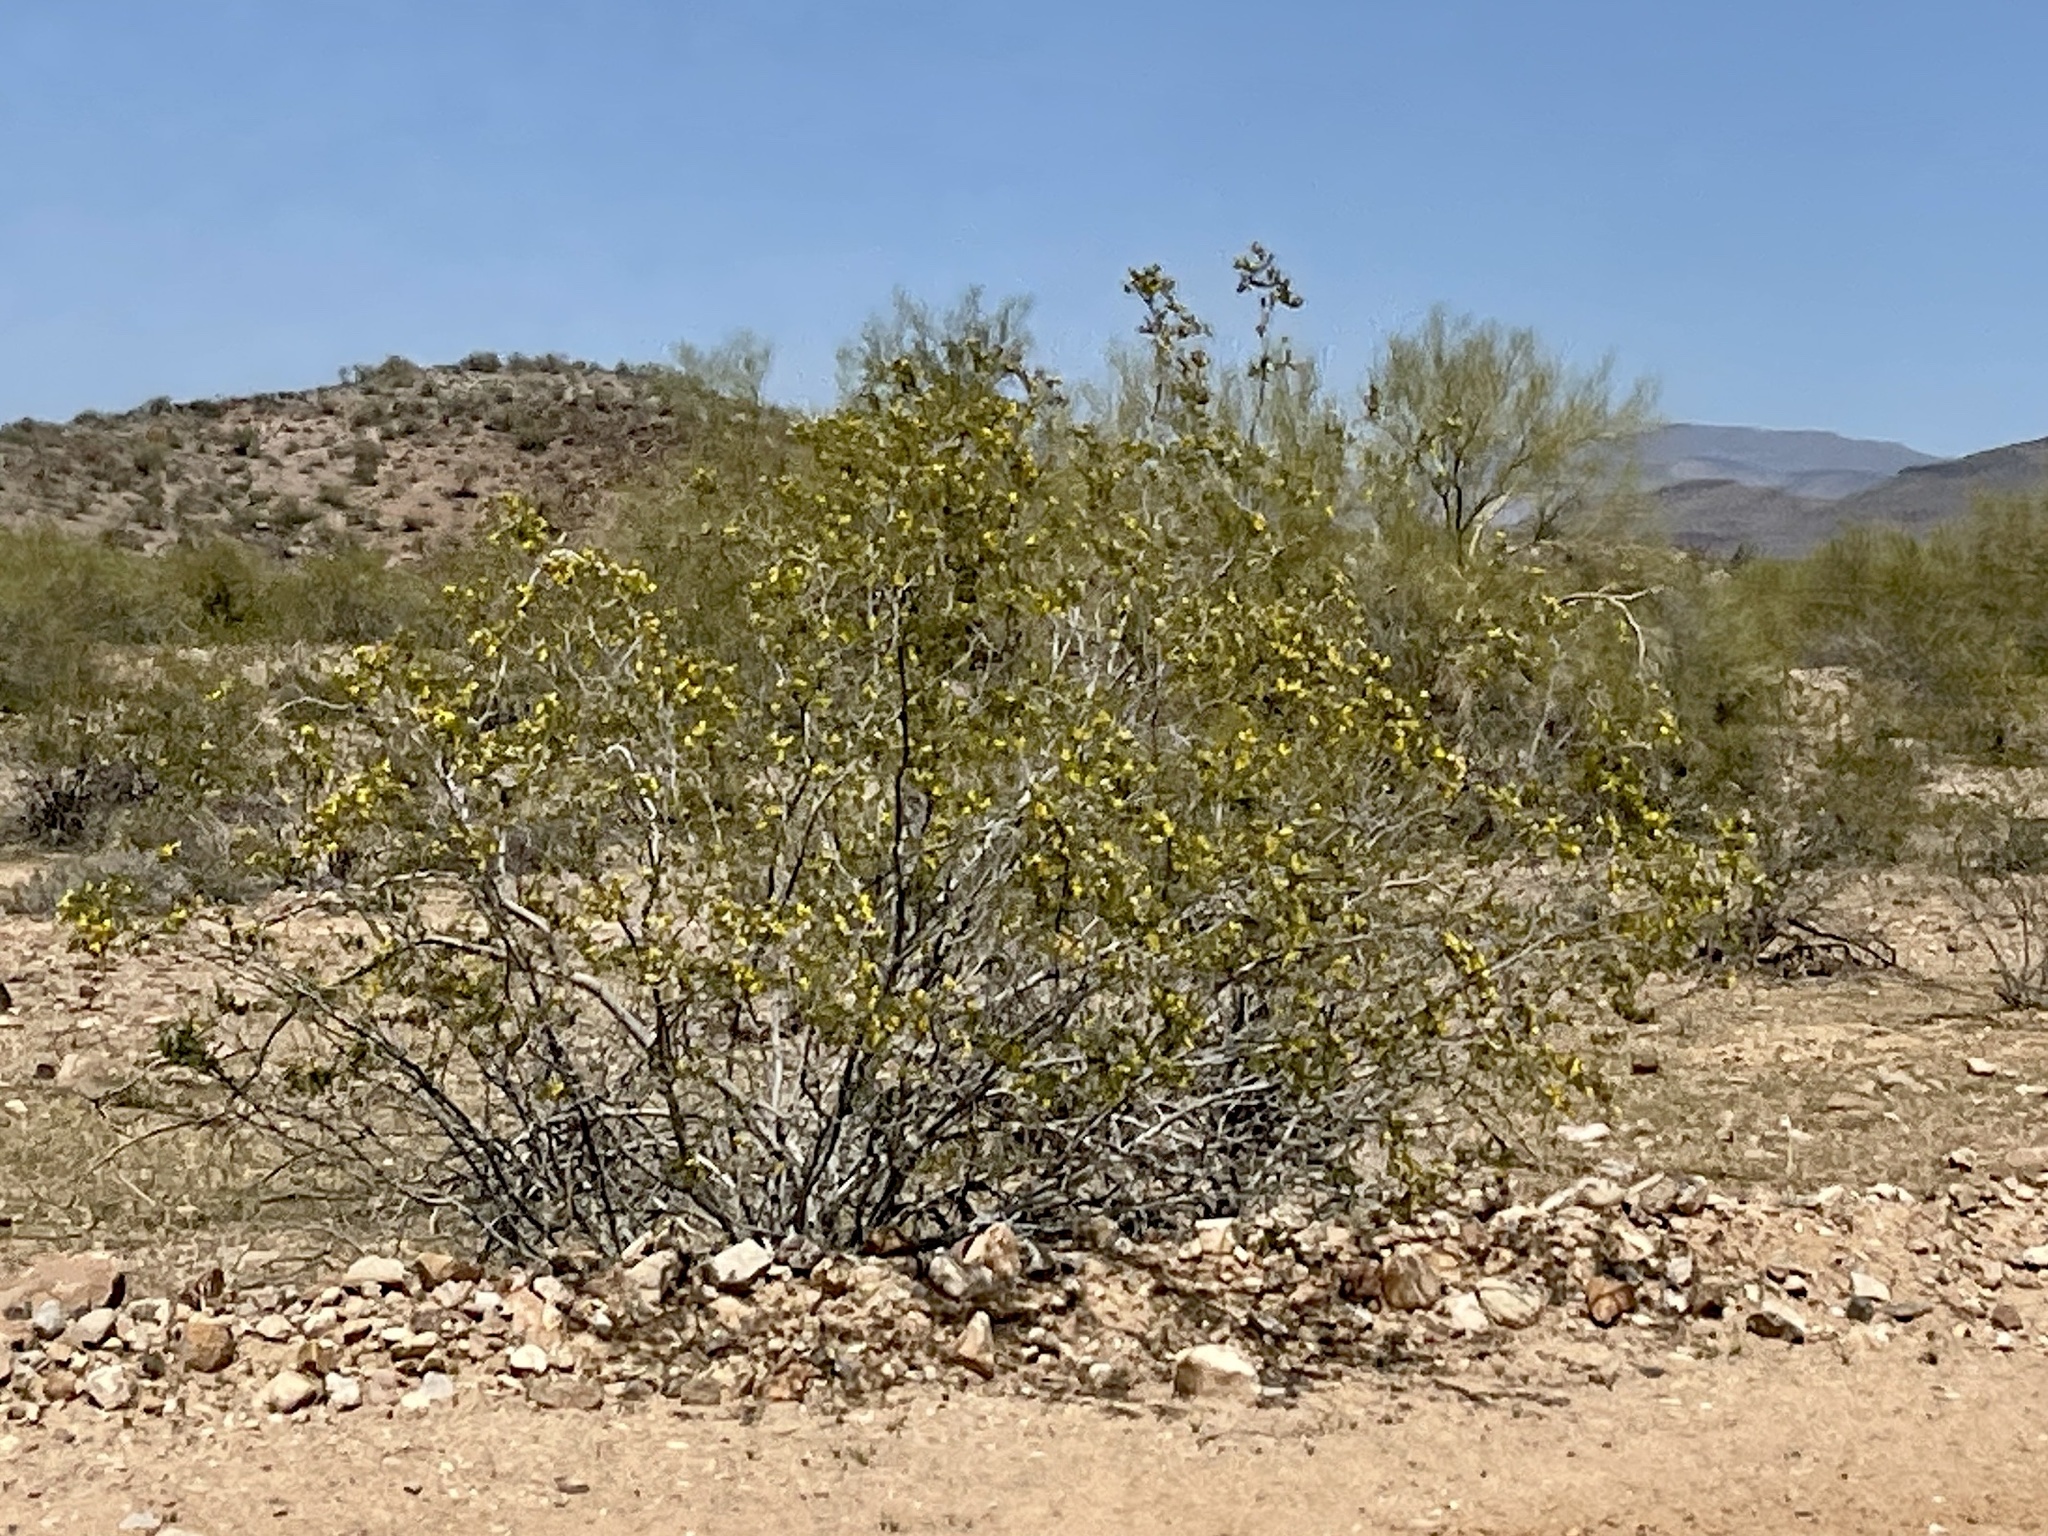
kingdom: Plantae
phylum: Tracheophyta
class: Magnoliopsida
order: Zygophyllales
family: Zygophyllaceae
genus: Larrea
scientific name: Larrea tridentata
